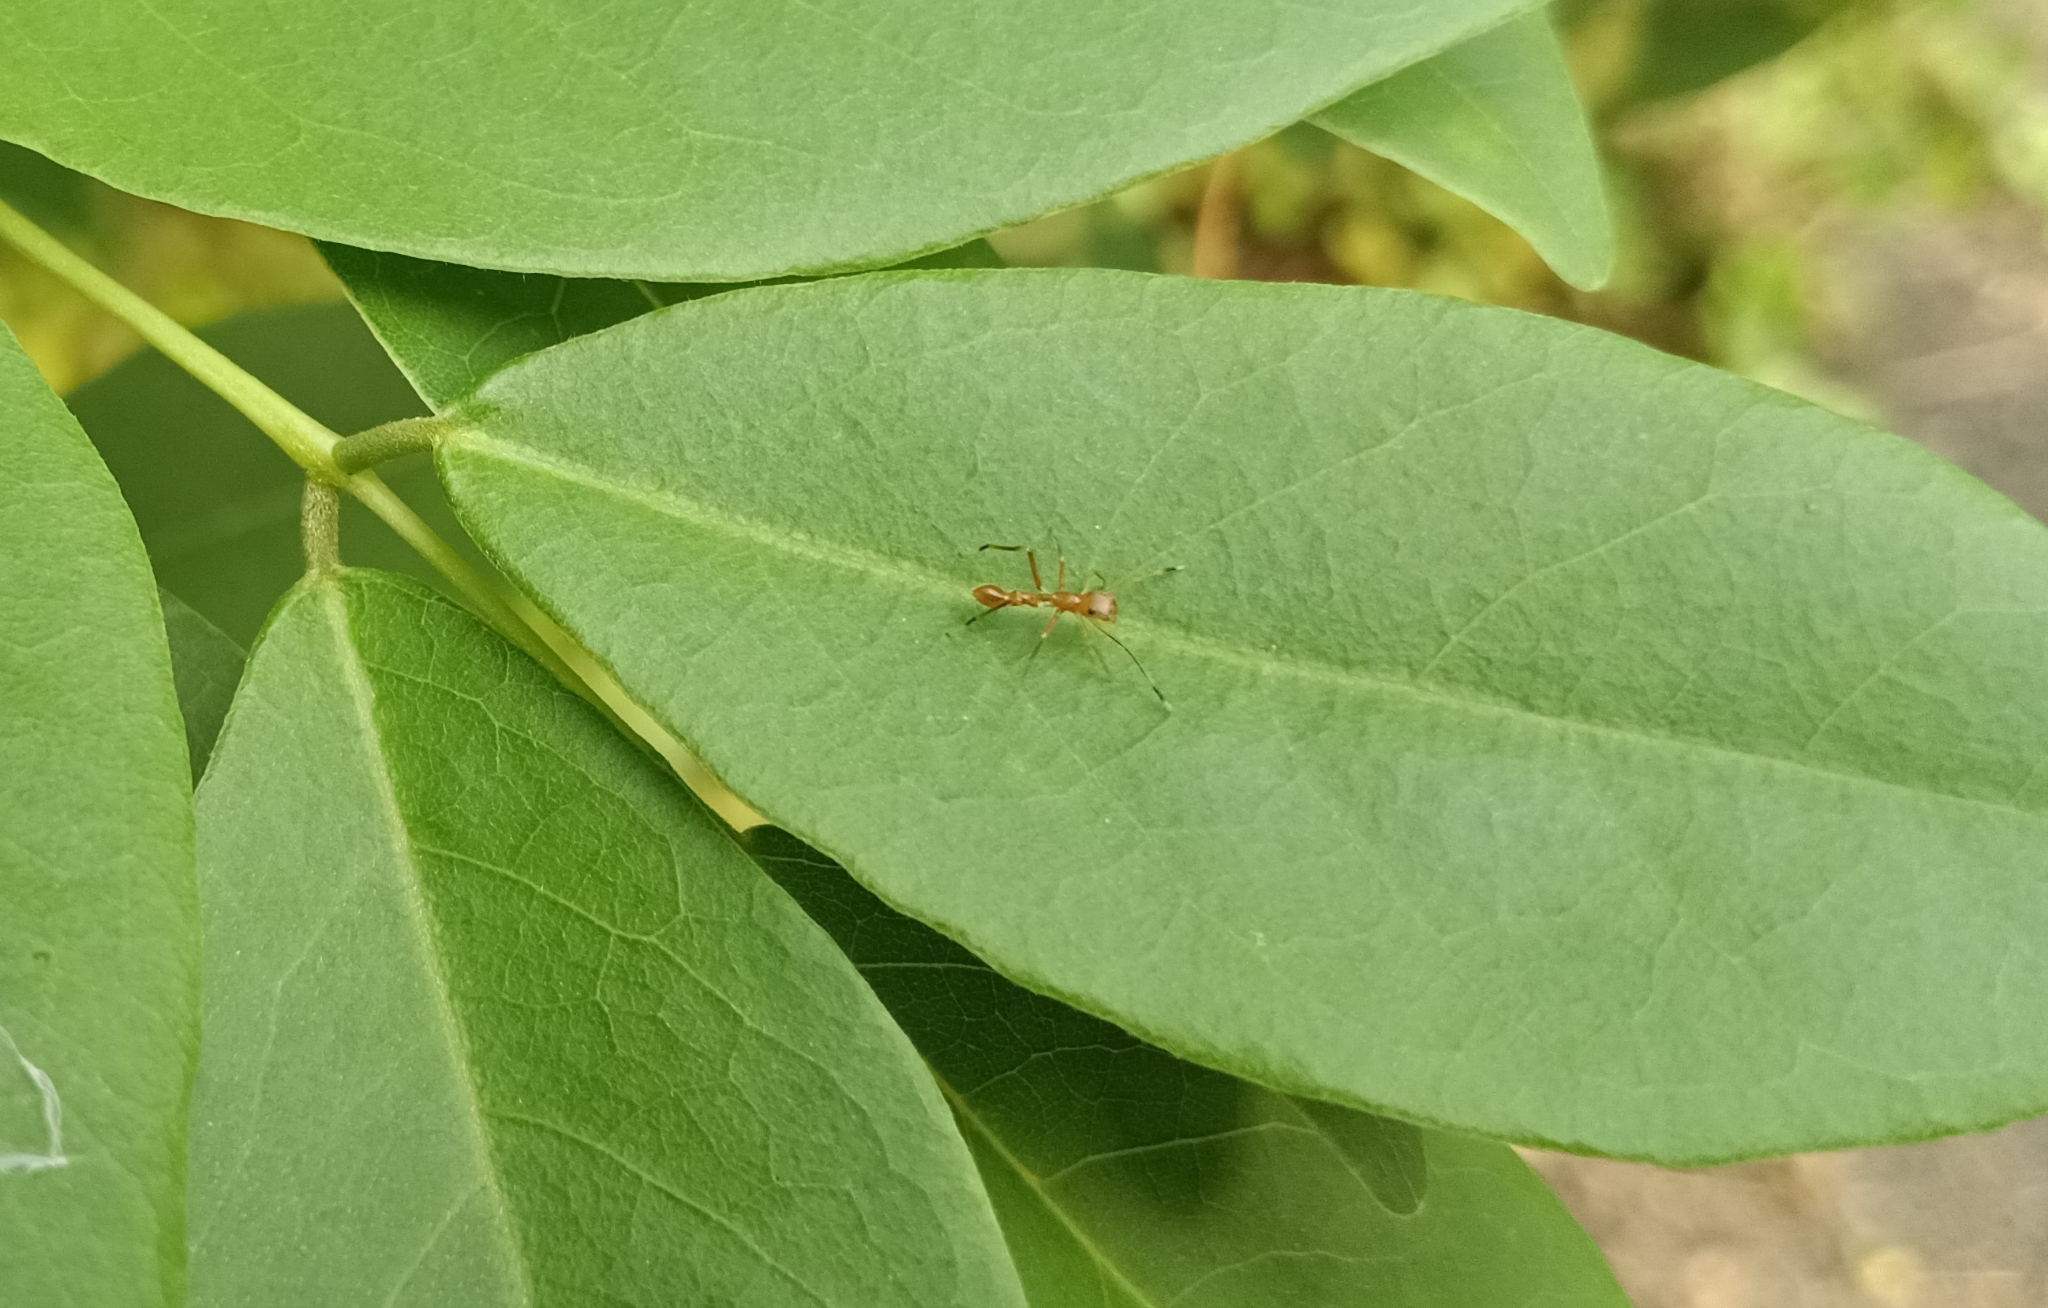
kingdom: Animalia
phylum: Arthropoda
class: Arachnida
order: Araneae
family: Salticidae
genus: Myrmaplata
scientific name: Myrmaplata plataleoides
